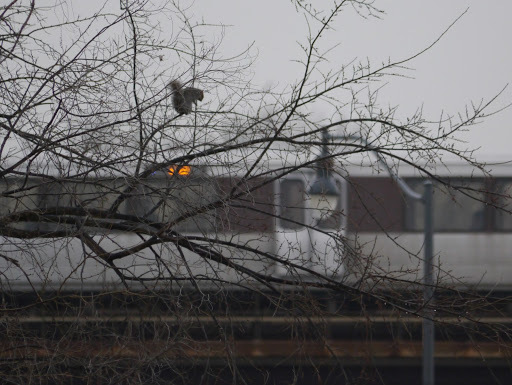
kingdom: Animalia
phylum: Chordata
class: Mammalia
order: Rodentia
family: Sciuridae
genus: Sciurus
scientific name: Sciurus carolinensis
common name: Eastern gray squirrel
